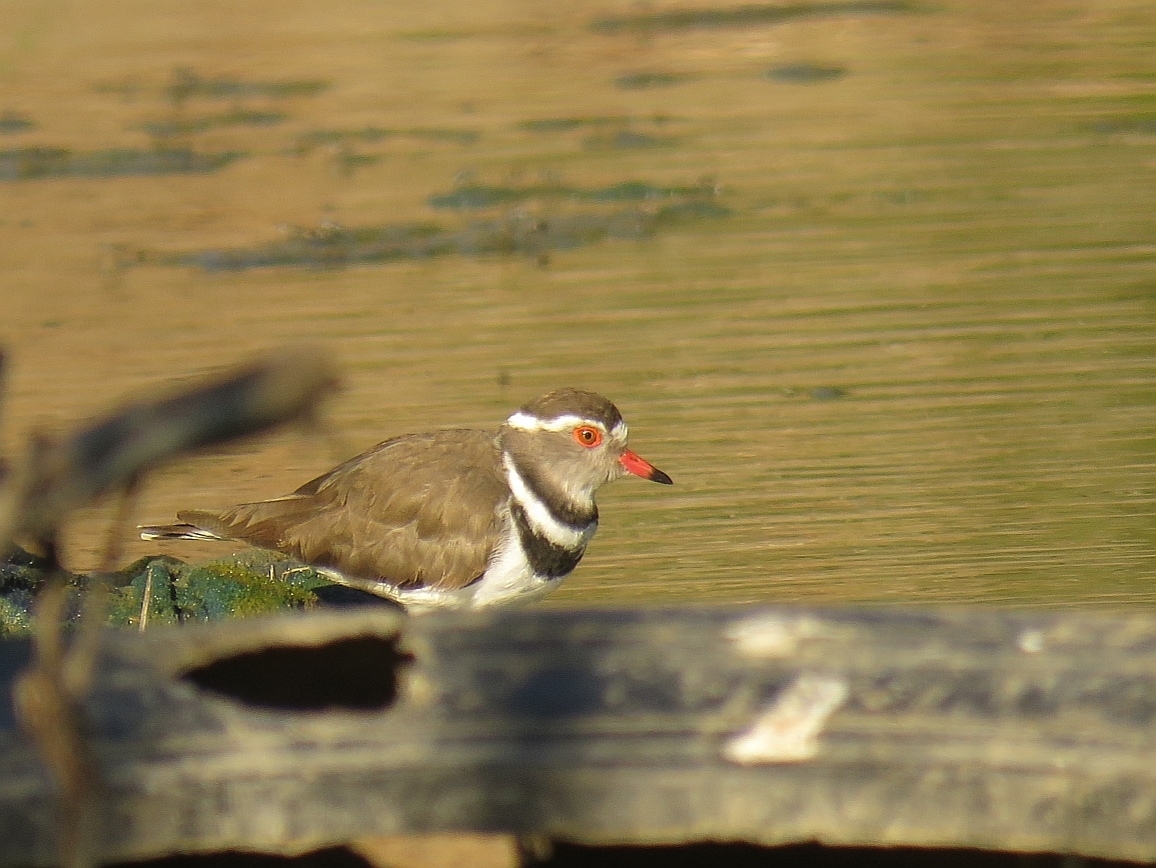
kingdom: Animalia
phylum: Chordata
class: Aves
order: Charadriiformes
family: Charadriidae
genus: Charadrius
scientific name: Charadrius tricollaris
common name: Three-banded plover
